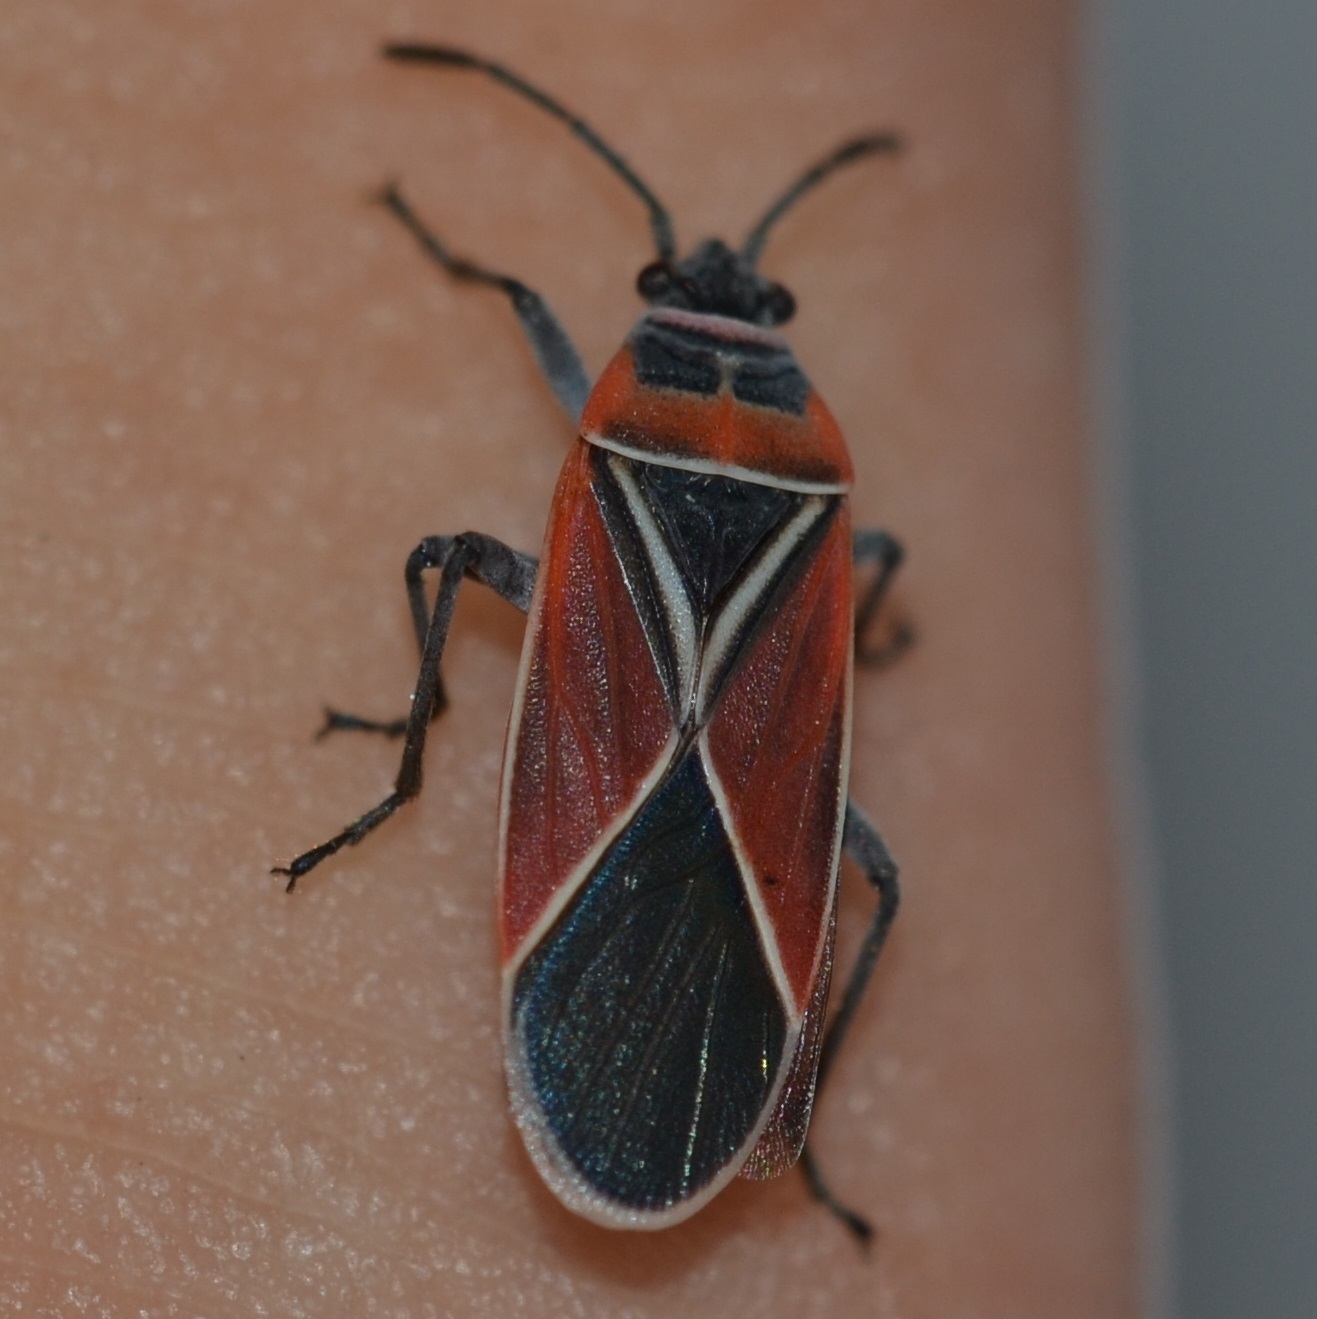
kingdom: Animalia
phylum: Arthropoda
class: Insecta
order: Hemiptera
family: Lygaeidae
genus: Neacoryphus
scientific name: Neacoryphus bicrucis
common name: Lygaeid bug
